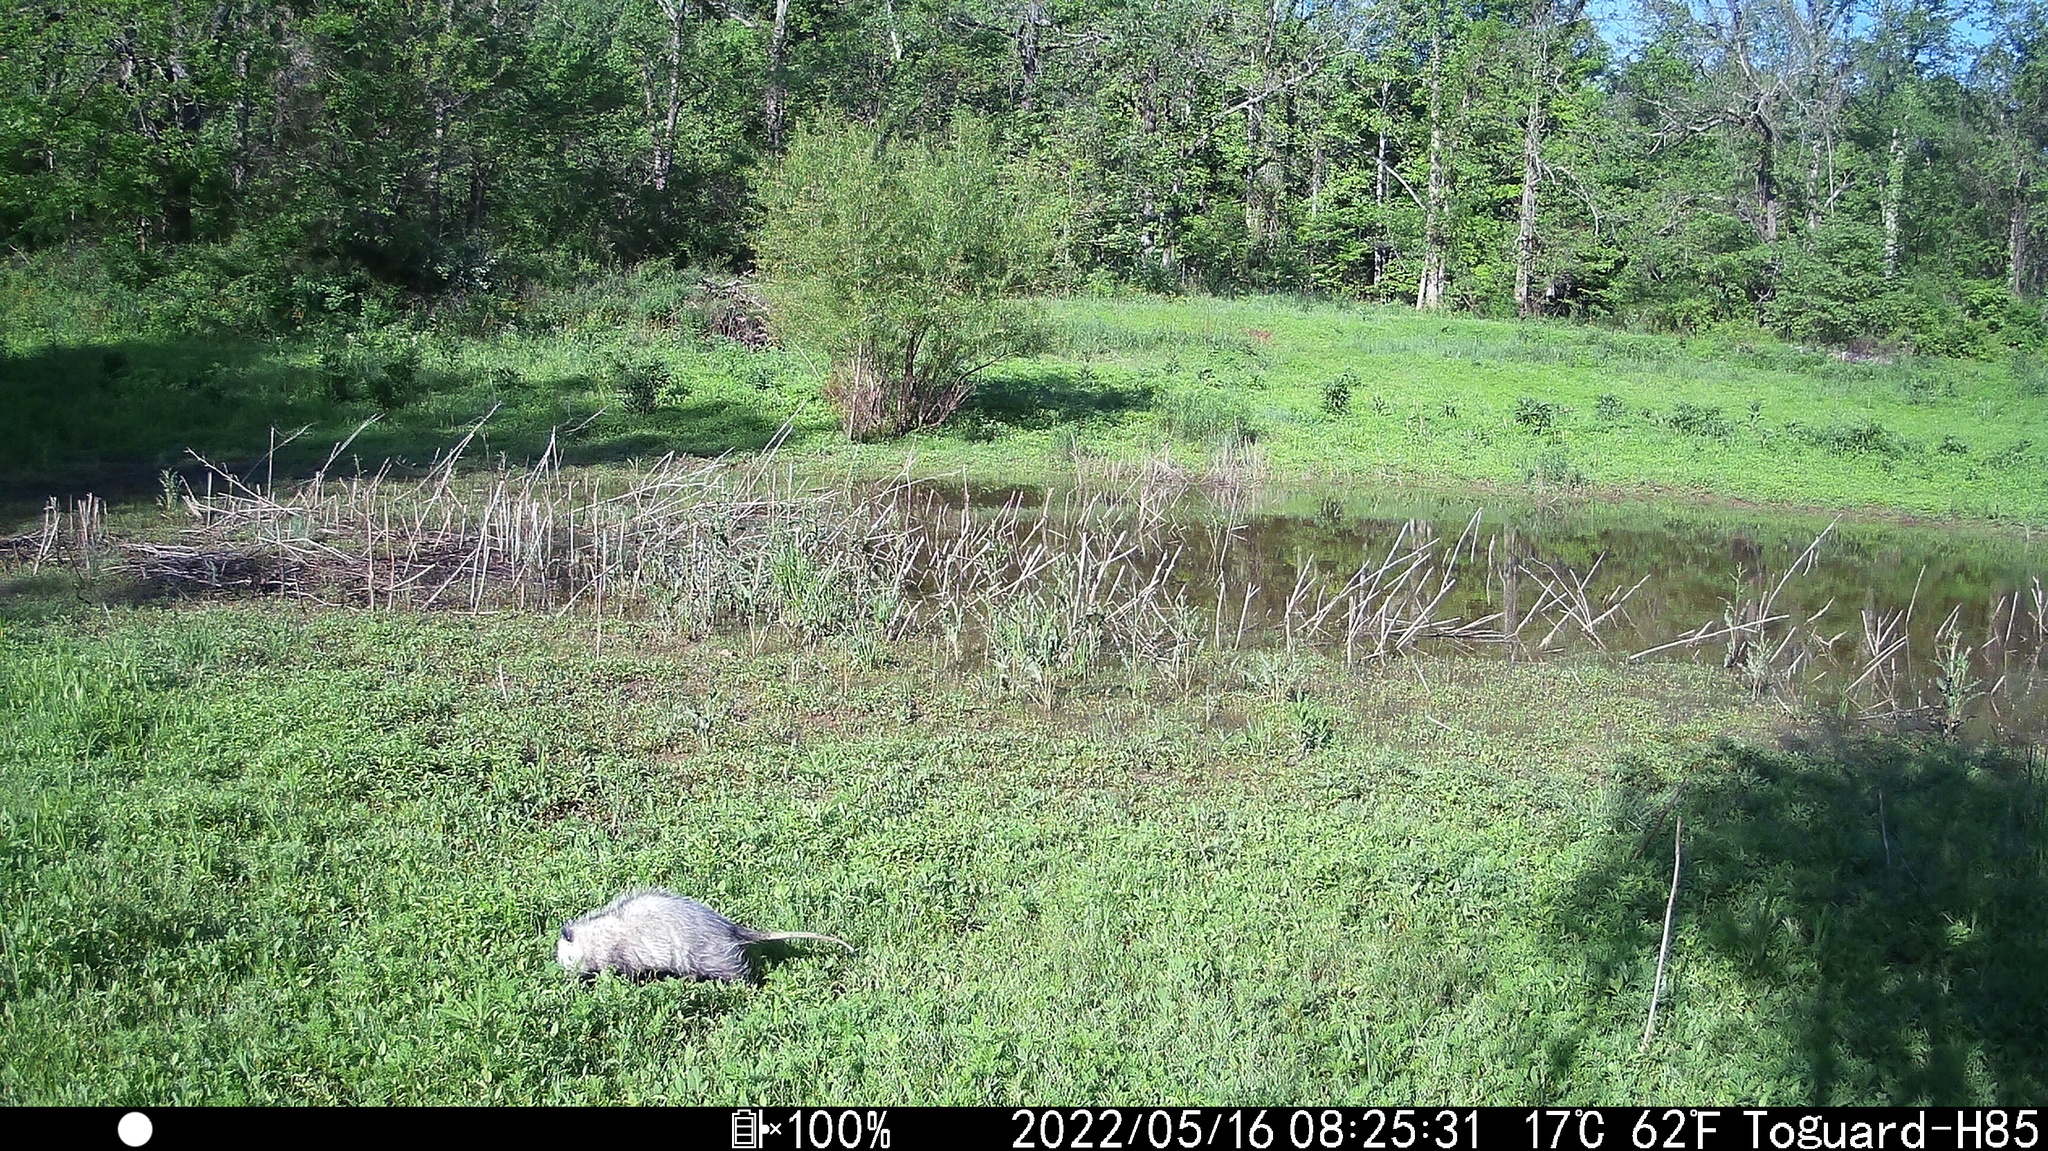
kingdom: Animalia
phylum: Chordata
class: Mammalia
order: Didelphimorphia
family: Didelphidae
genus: Didelphis
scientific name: Didelphis virginiana
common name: Virginia opossum
